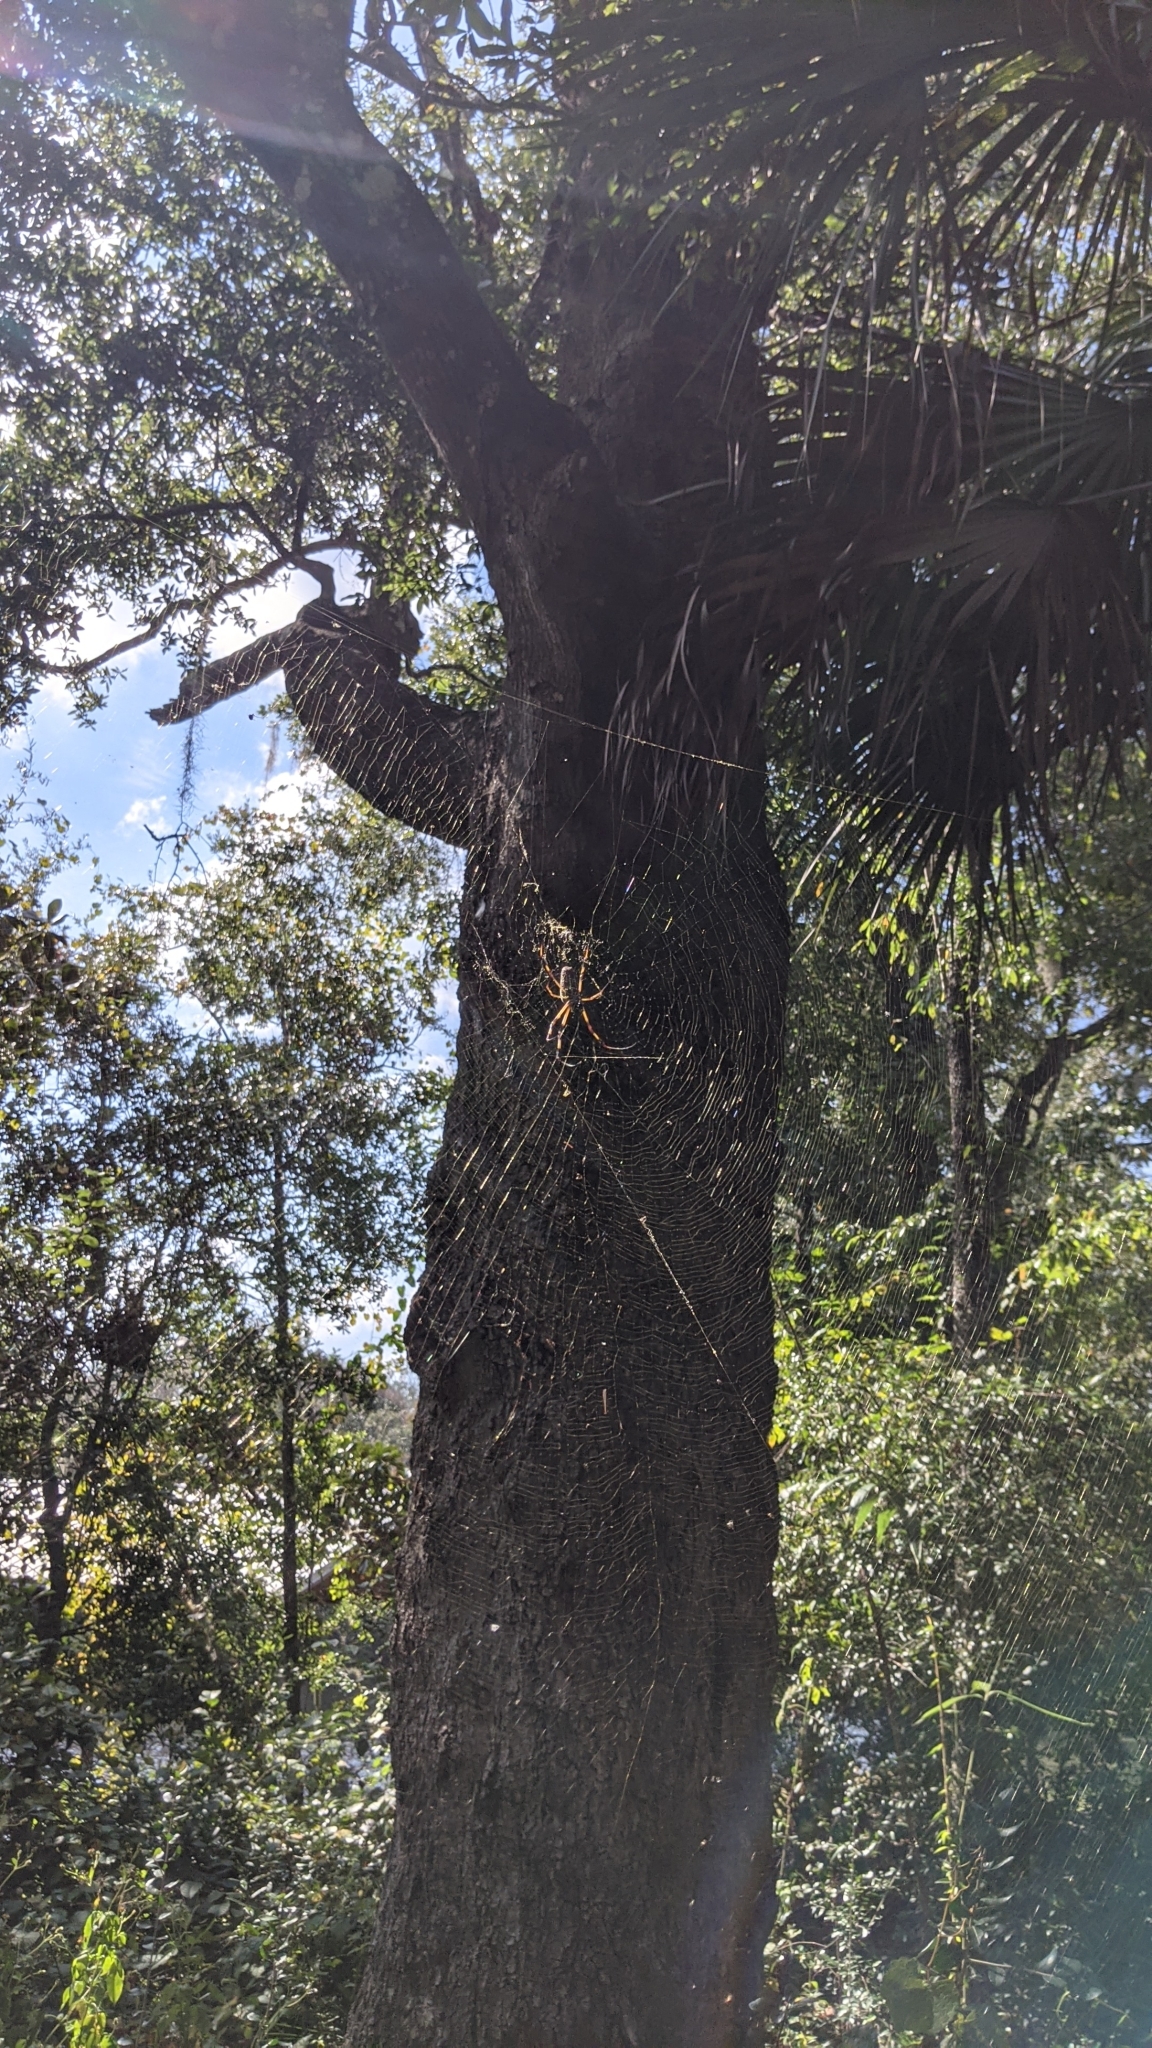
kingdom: Animalia
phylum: Arthropoda
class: Arachnida
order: Araneae
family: Araneidae
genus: Trichonephila
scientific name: Trichonephila clavipes
